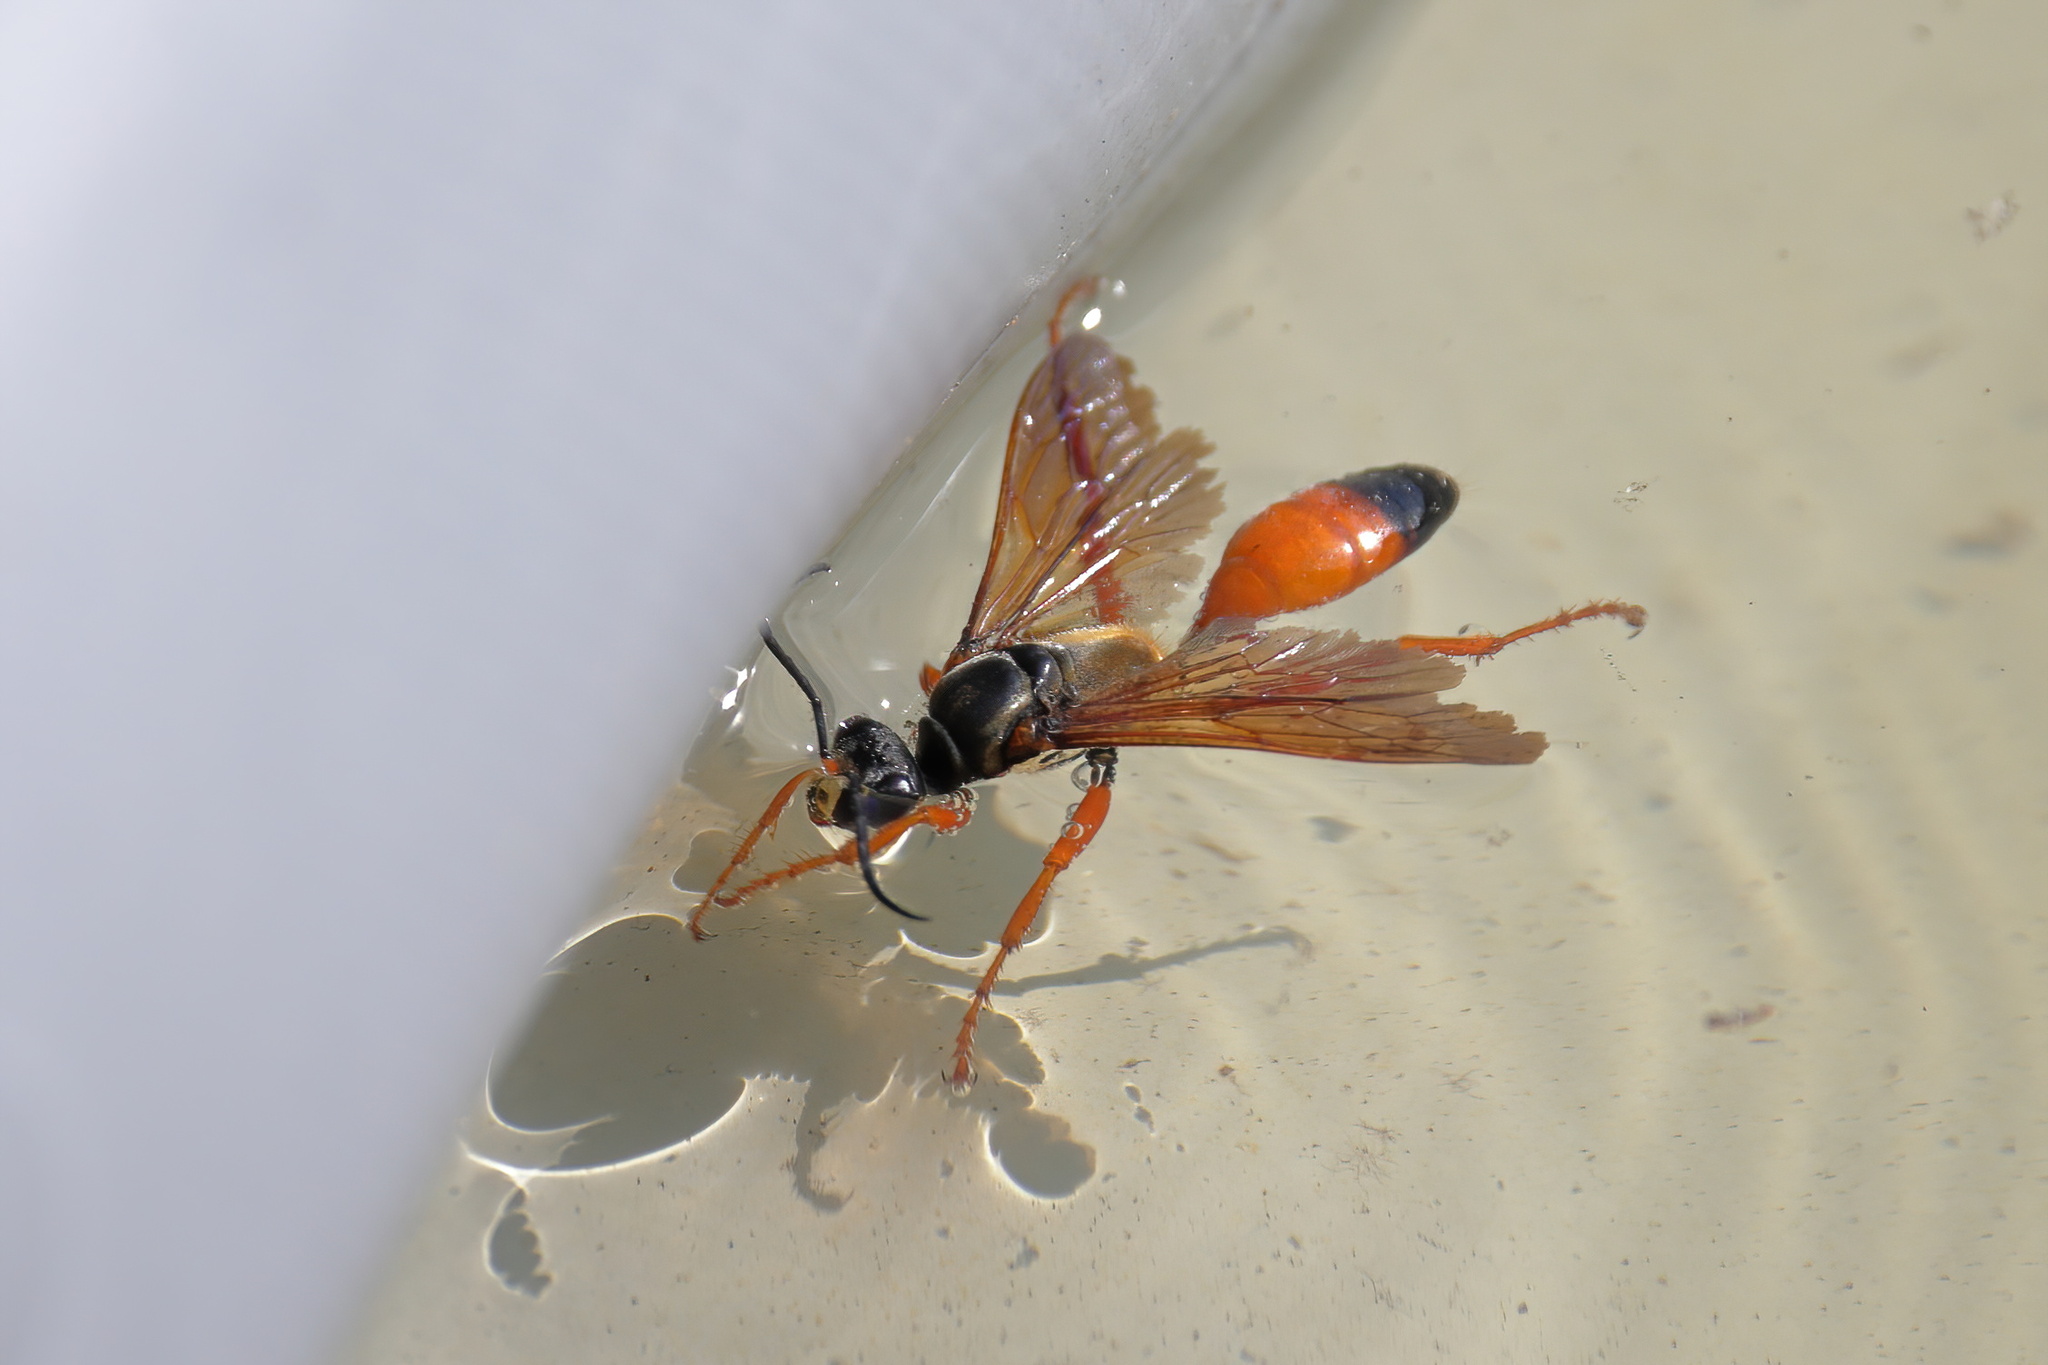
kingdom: Animalia
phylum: Arthropoda
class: Insecta
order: Hymenoptera
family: Sphecidae
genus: Sphex
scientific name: Sphex ichneumoneus
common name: Great golden digger wasp
